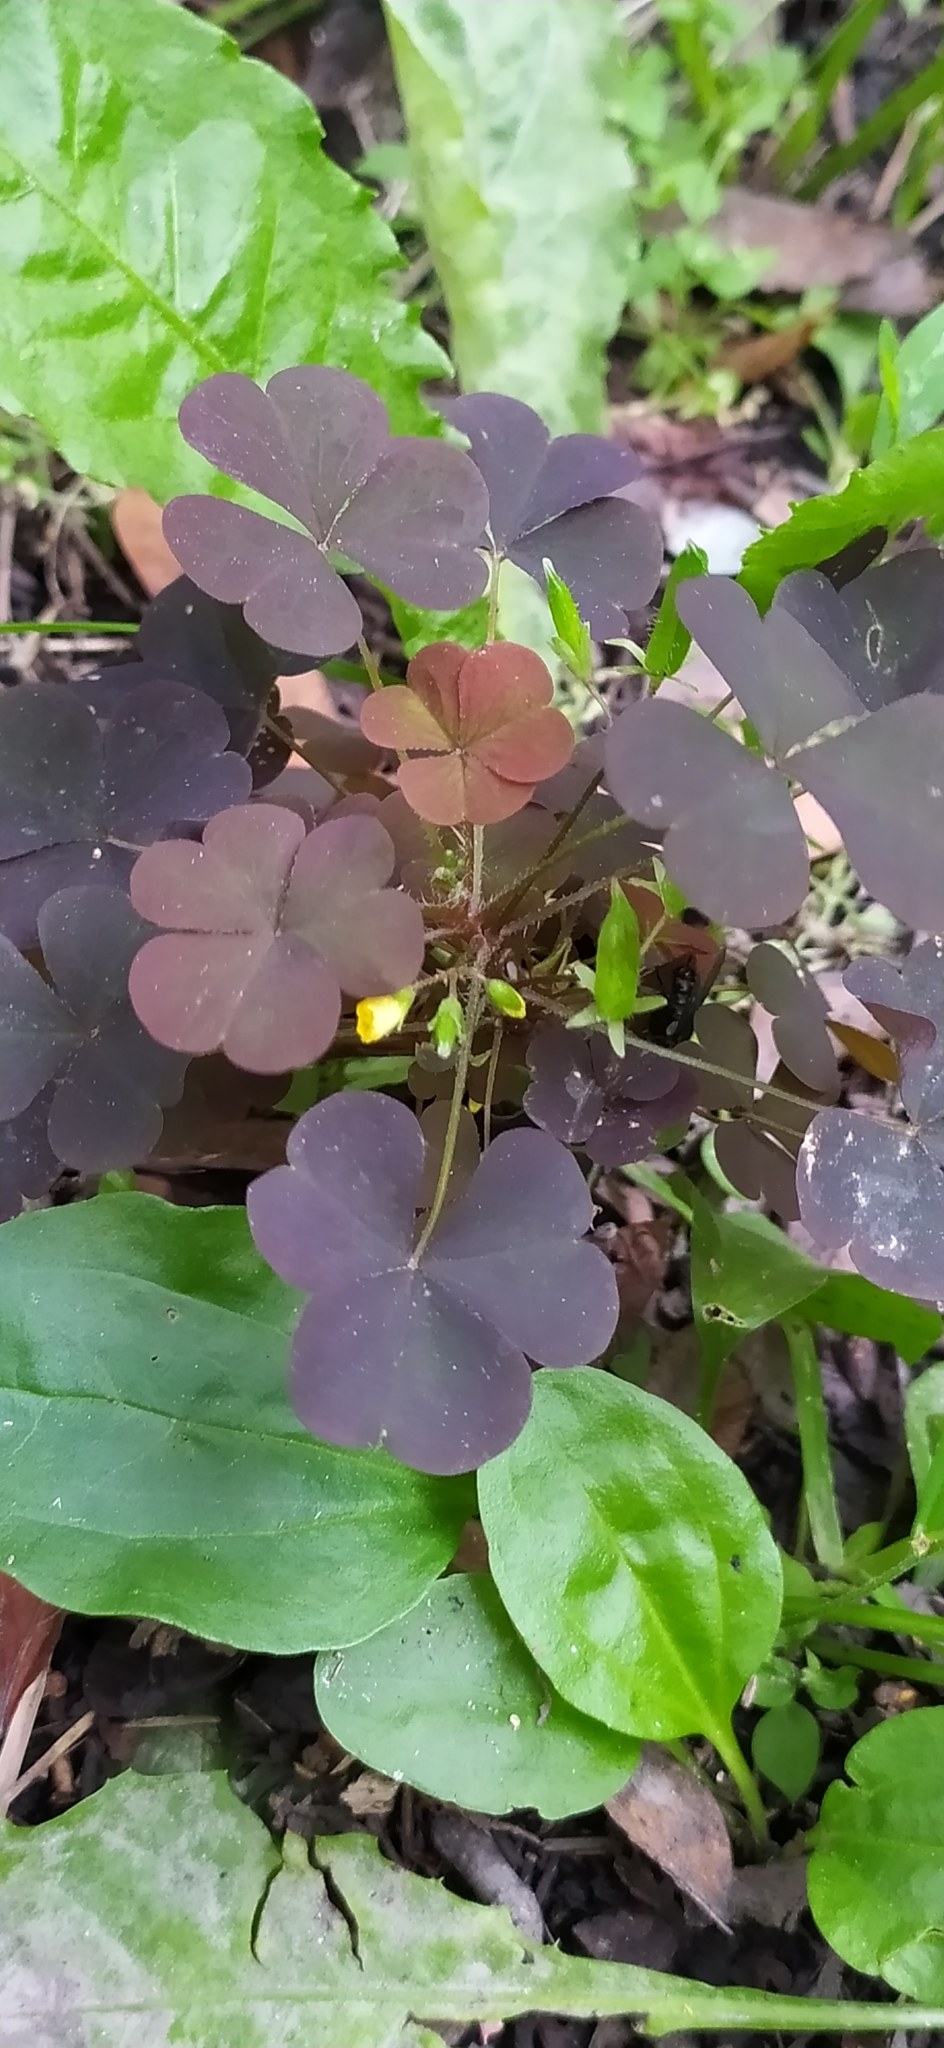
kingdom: Plantae
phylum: Tracheophyta
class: Magnoliopsida
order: Oxalidales
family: Oxalidaceae
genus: Oxalis
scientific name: Oxalis stricta
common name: Upright yellow-sorrel
